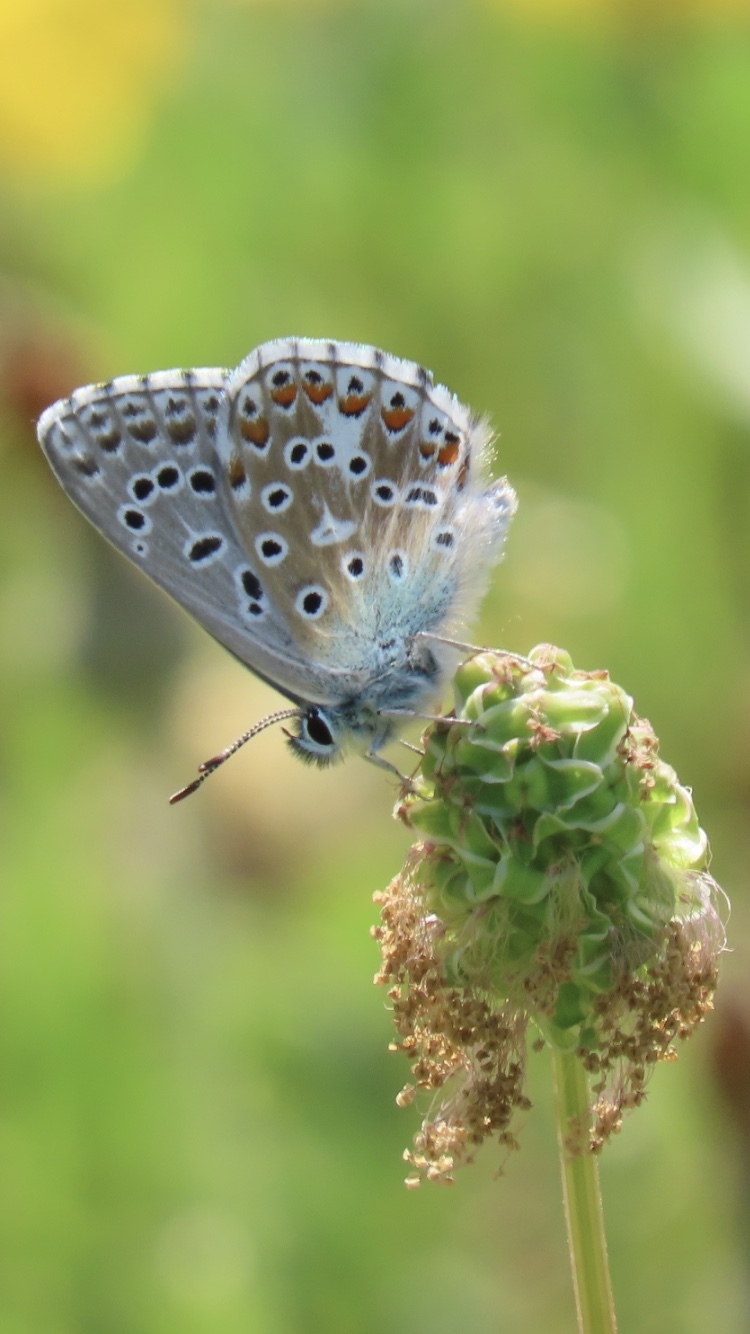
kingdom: Animalia
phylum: Arthropoda
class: Insecta
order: Lepidoptera
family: Lycaenidae
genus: Lysandra
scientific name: Lysandra bellargus
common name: Adonis blue
